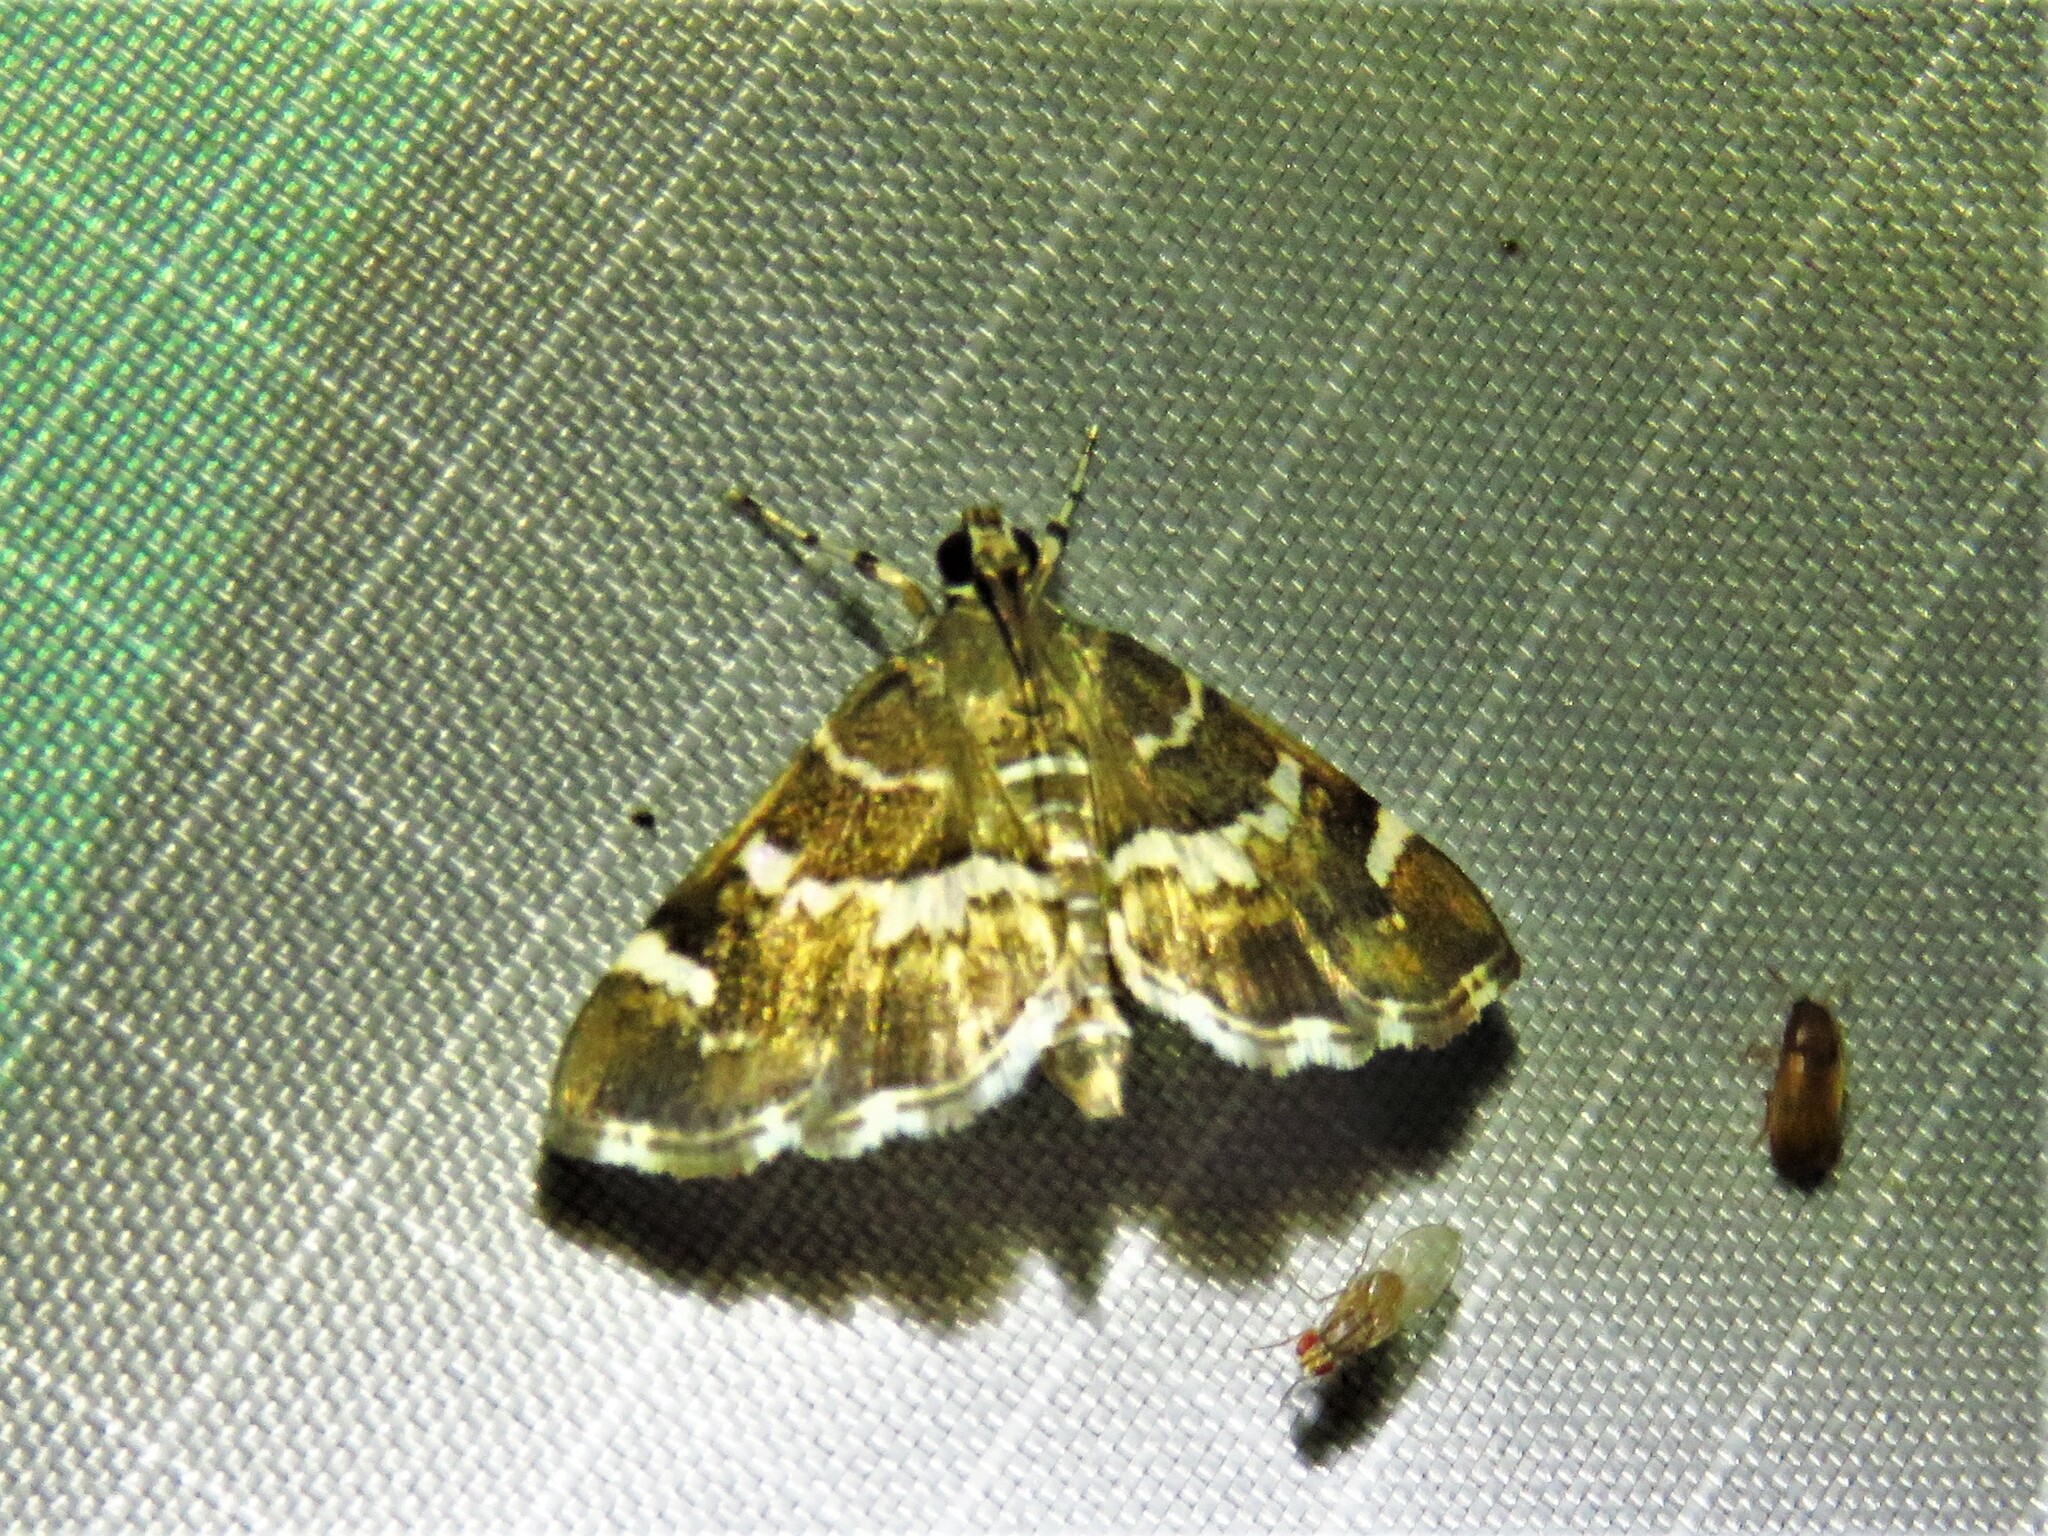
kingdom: Animalia
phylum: Arthropoda
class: Insecta
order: Lepidoptera
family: Crambidae
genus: Hymenia
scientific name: Hymenia perspectalis
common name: Spotted beet webworm
